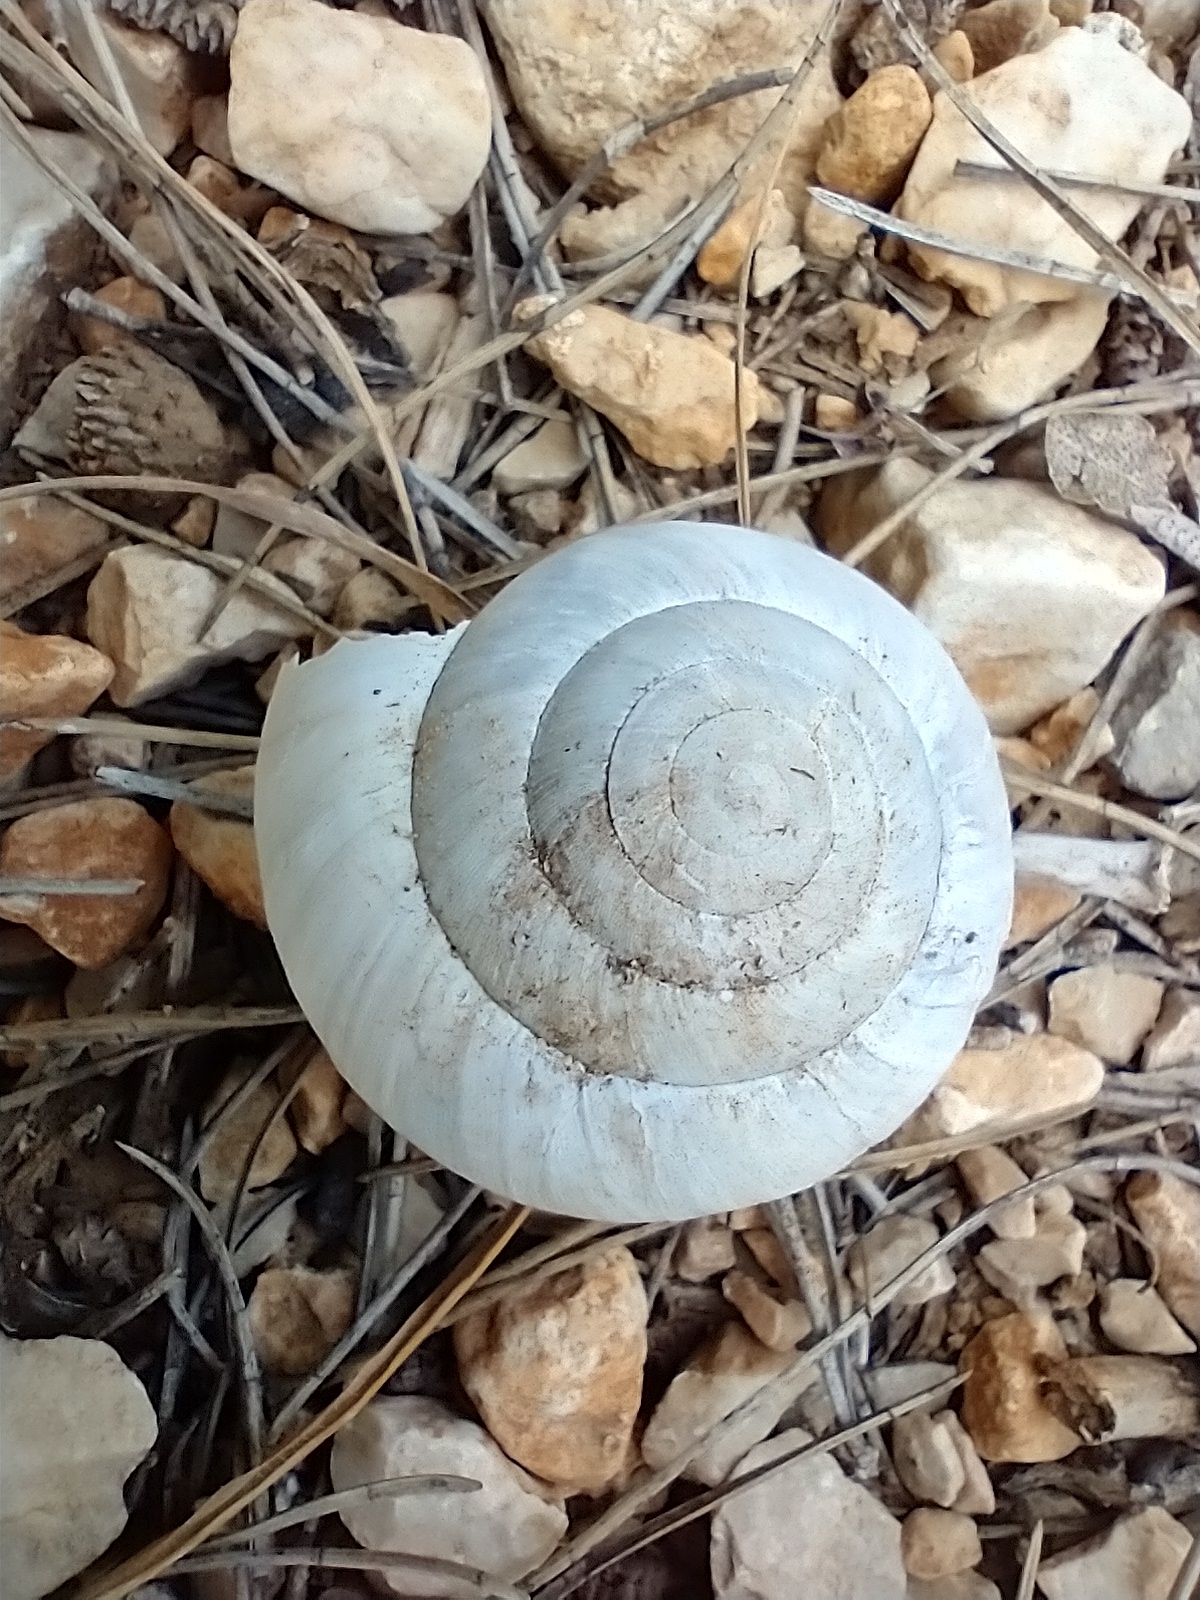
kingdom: Animalia
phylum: Mollusca
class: Gastropoda
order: Stylommatophora
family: Zonitidae
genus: Zonites
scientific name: Zonites algirus
